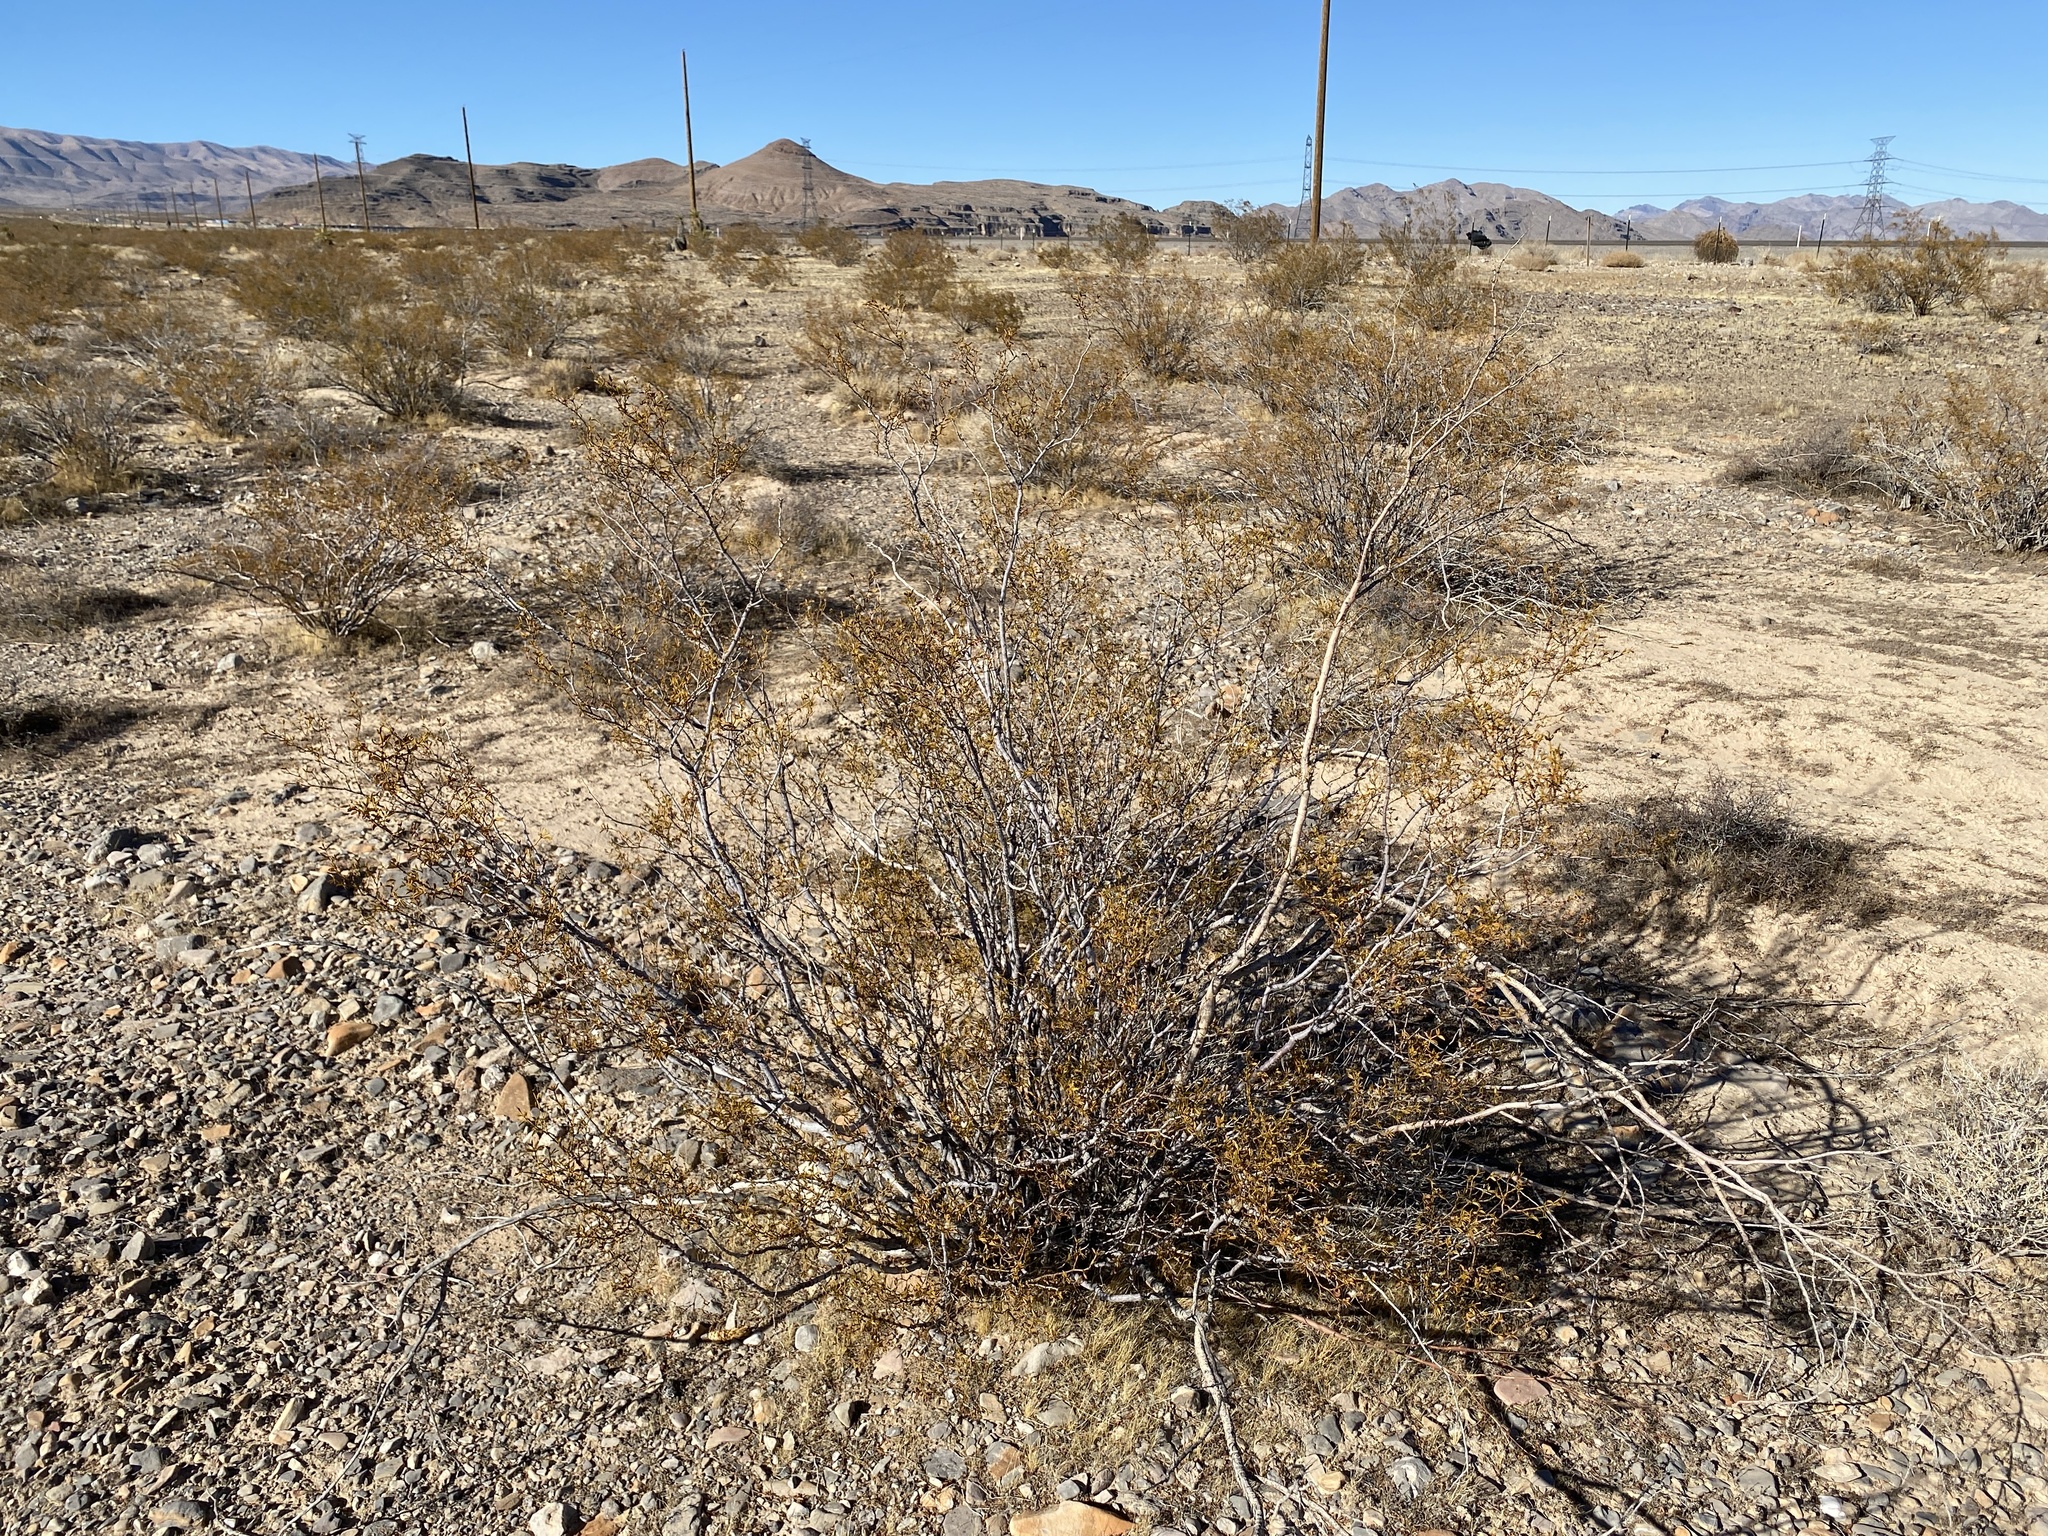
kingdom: Plantae
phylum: Tracheophyta
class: Magnoliopsida
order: Zygophyllales
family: Zygophyllaceae
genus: Larrea
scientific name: Larrea tridentata
